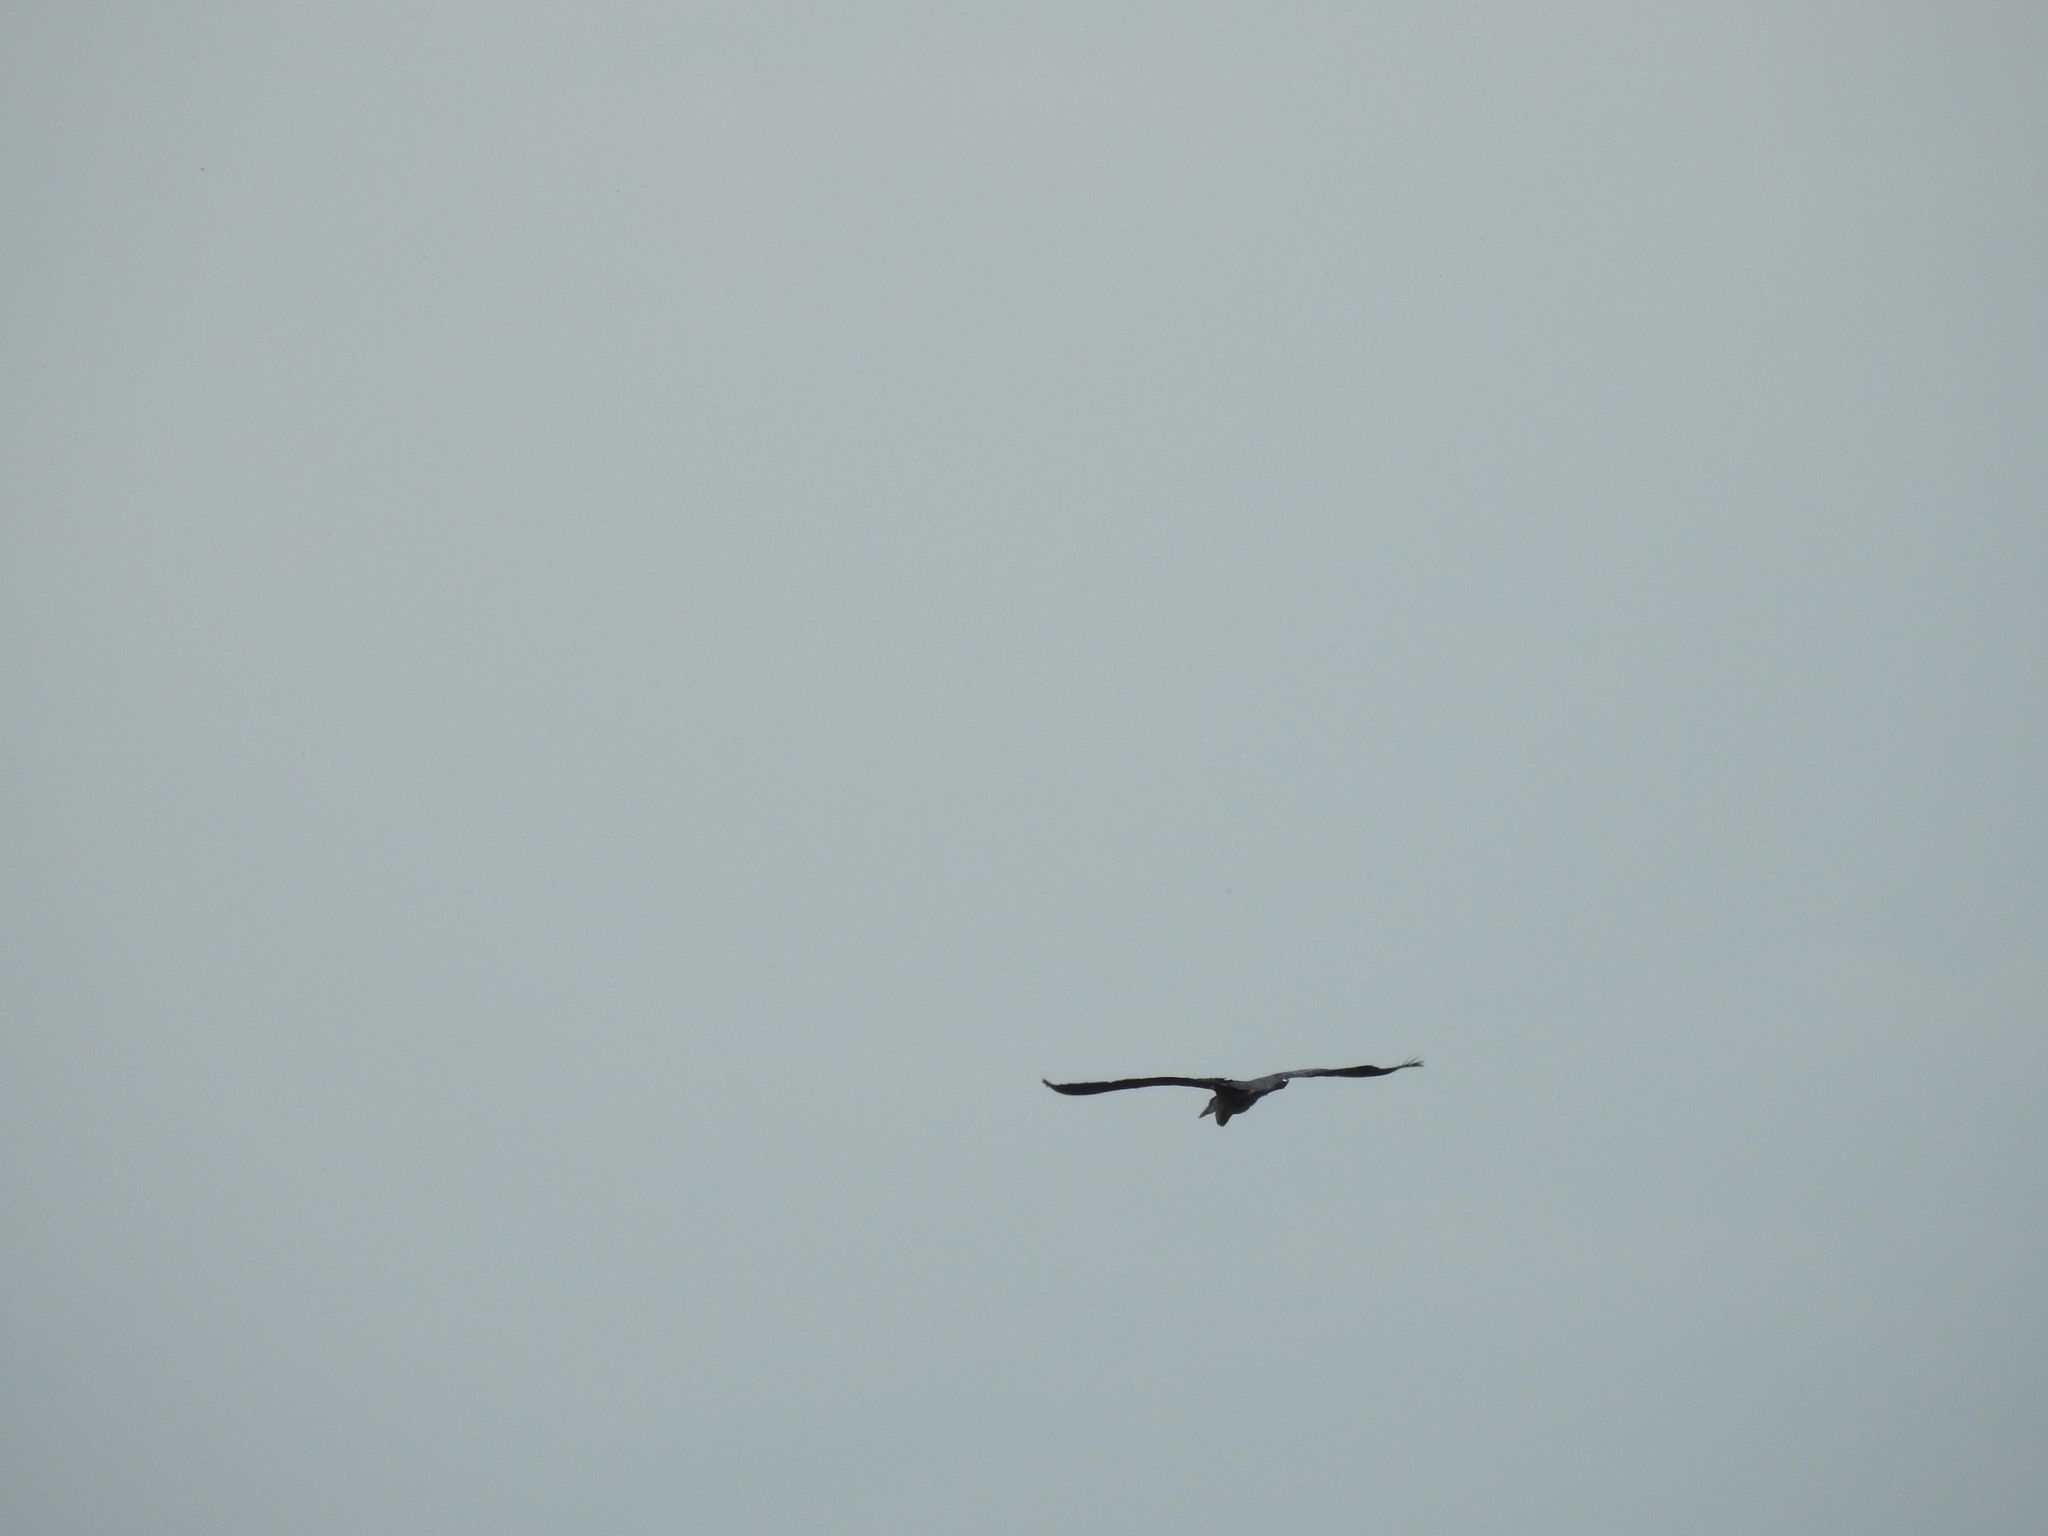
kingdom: Animalia
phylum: Chordata
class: Aves
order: Pelecaniformes
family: Ardeidae
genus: Ardea
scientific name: Ardea herodias
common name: Great blue heron
